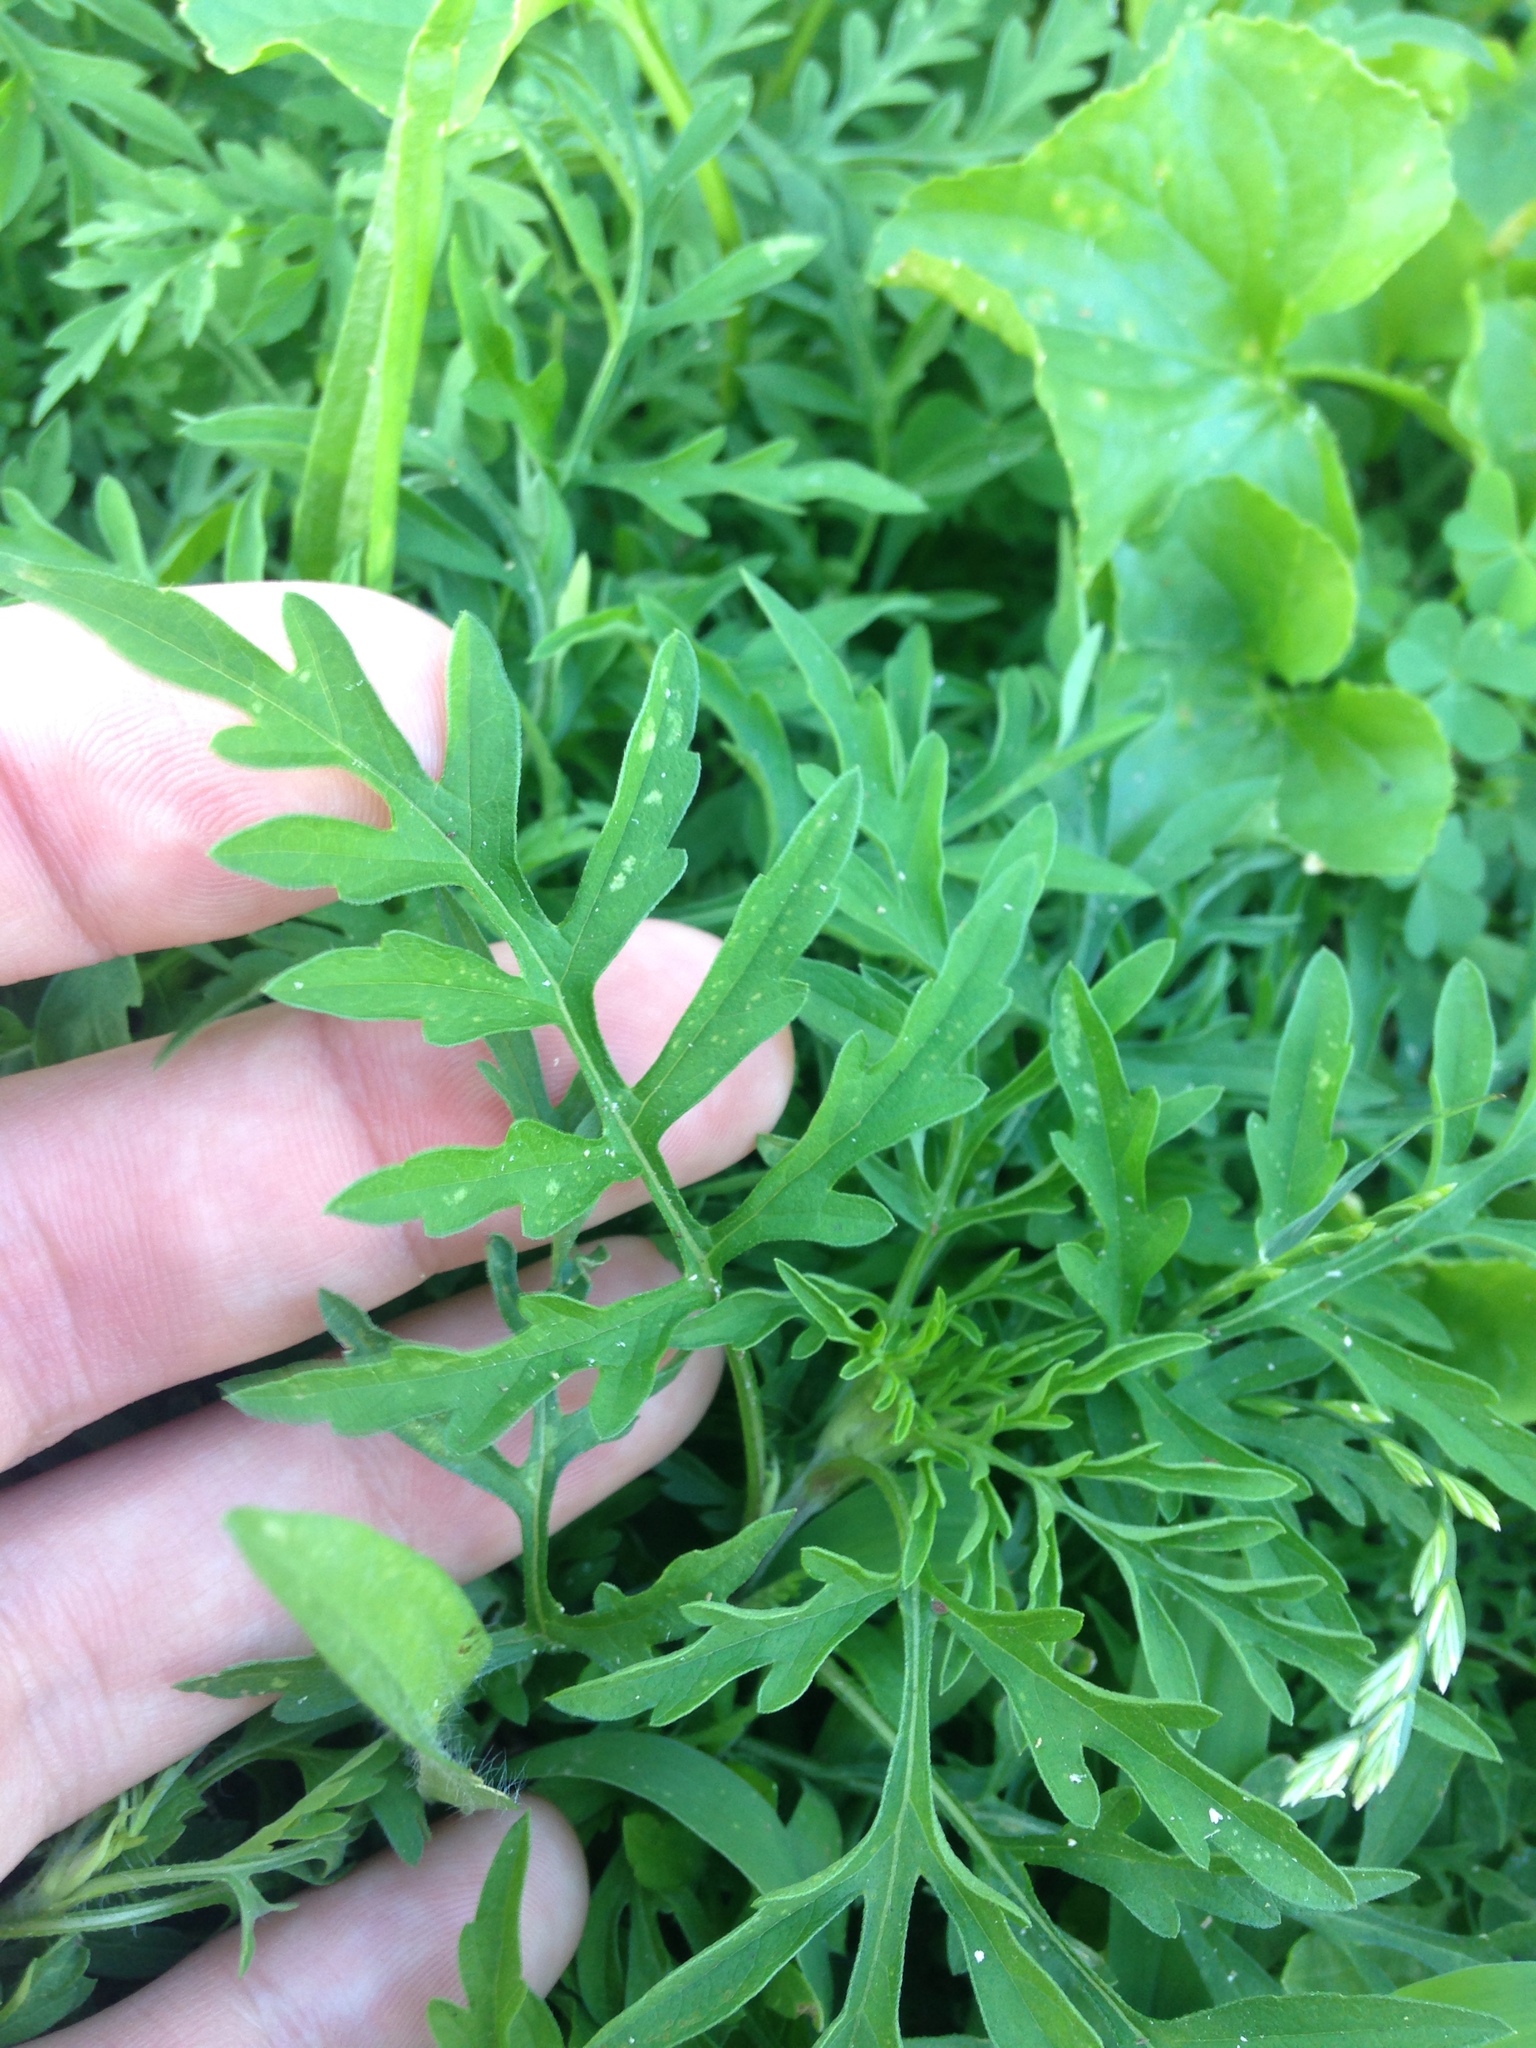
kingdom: Plantae
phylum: Tracheophyta
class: Magnoliopsida
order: Asterales
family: Asteraceae
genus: Ambrosia
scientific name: Ambrosia artemisiifolia
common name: Annual ragweed
